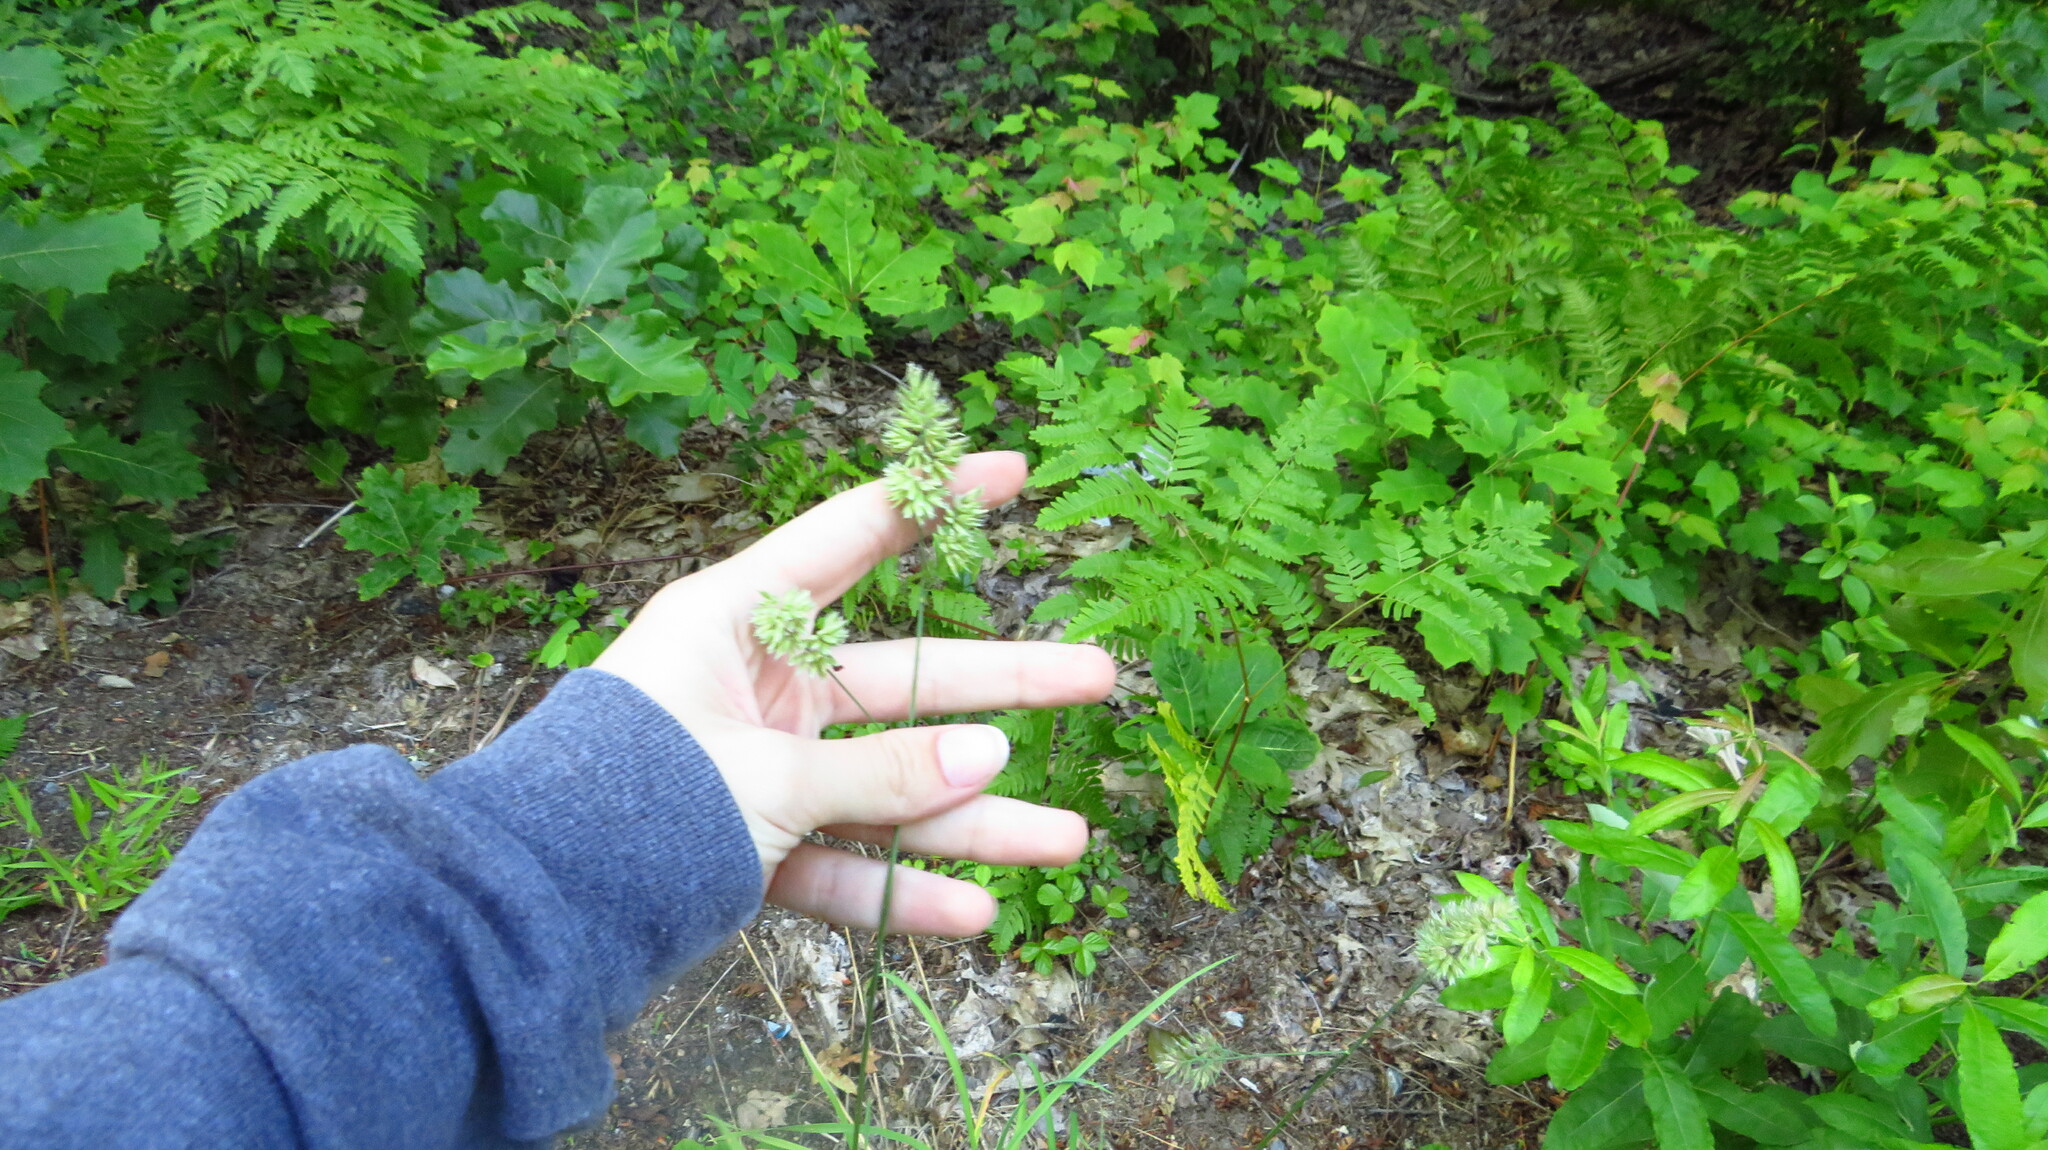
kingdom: Plantae
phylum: Tracheophyta
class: Liliopsida
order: Poales
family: Poaceae
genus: Dactylis
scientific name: Dactylis glomerata
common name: Orchardgrass
